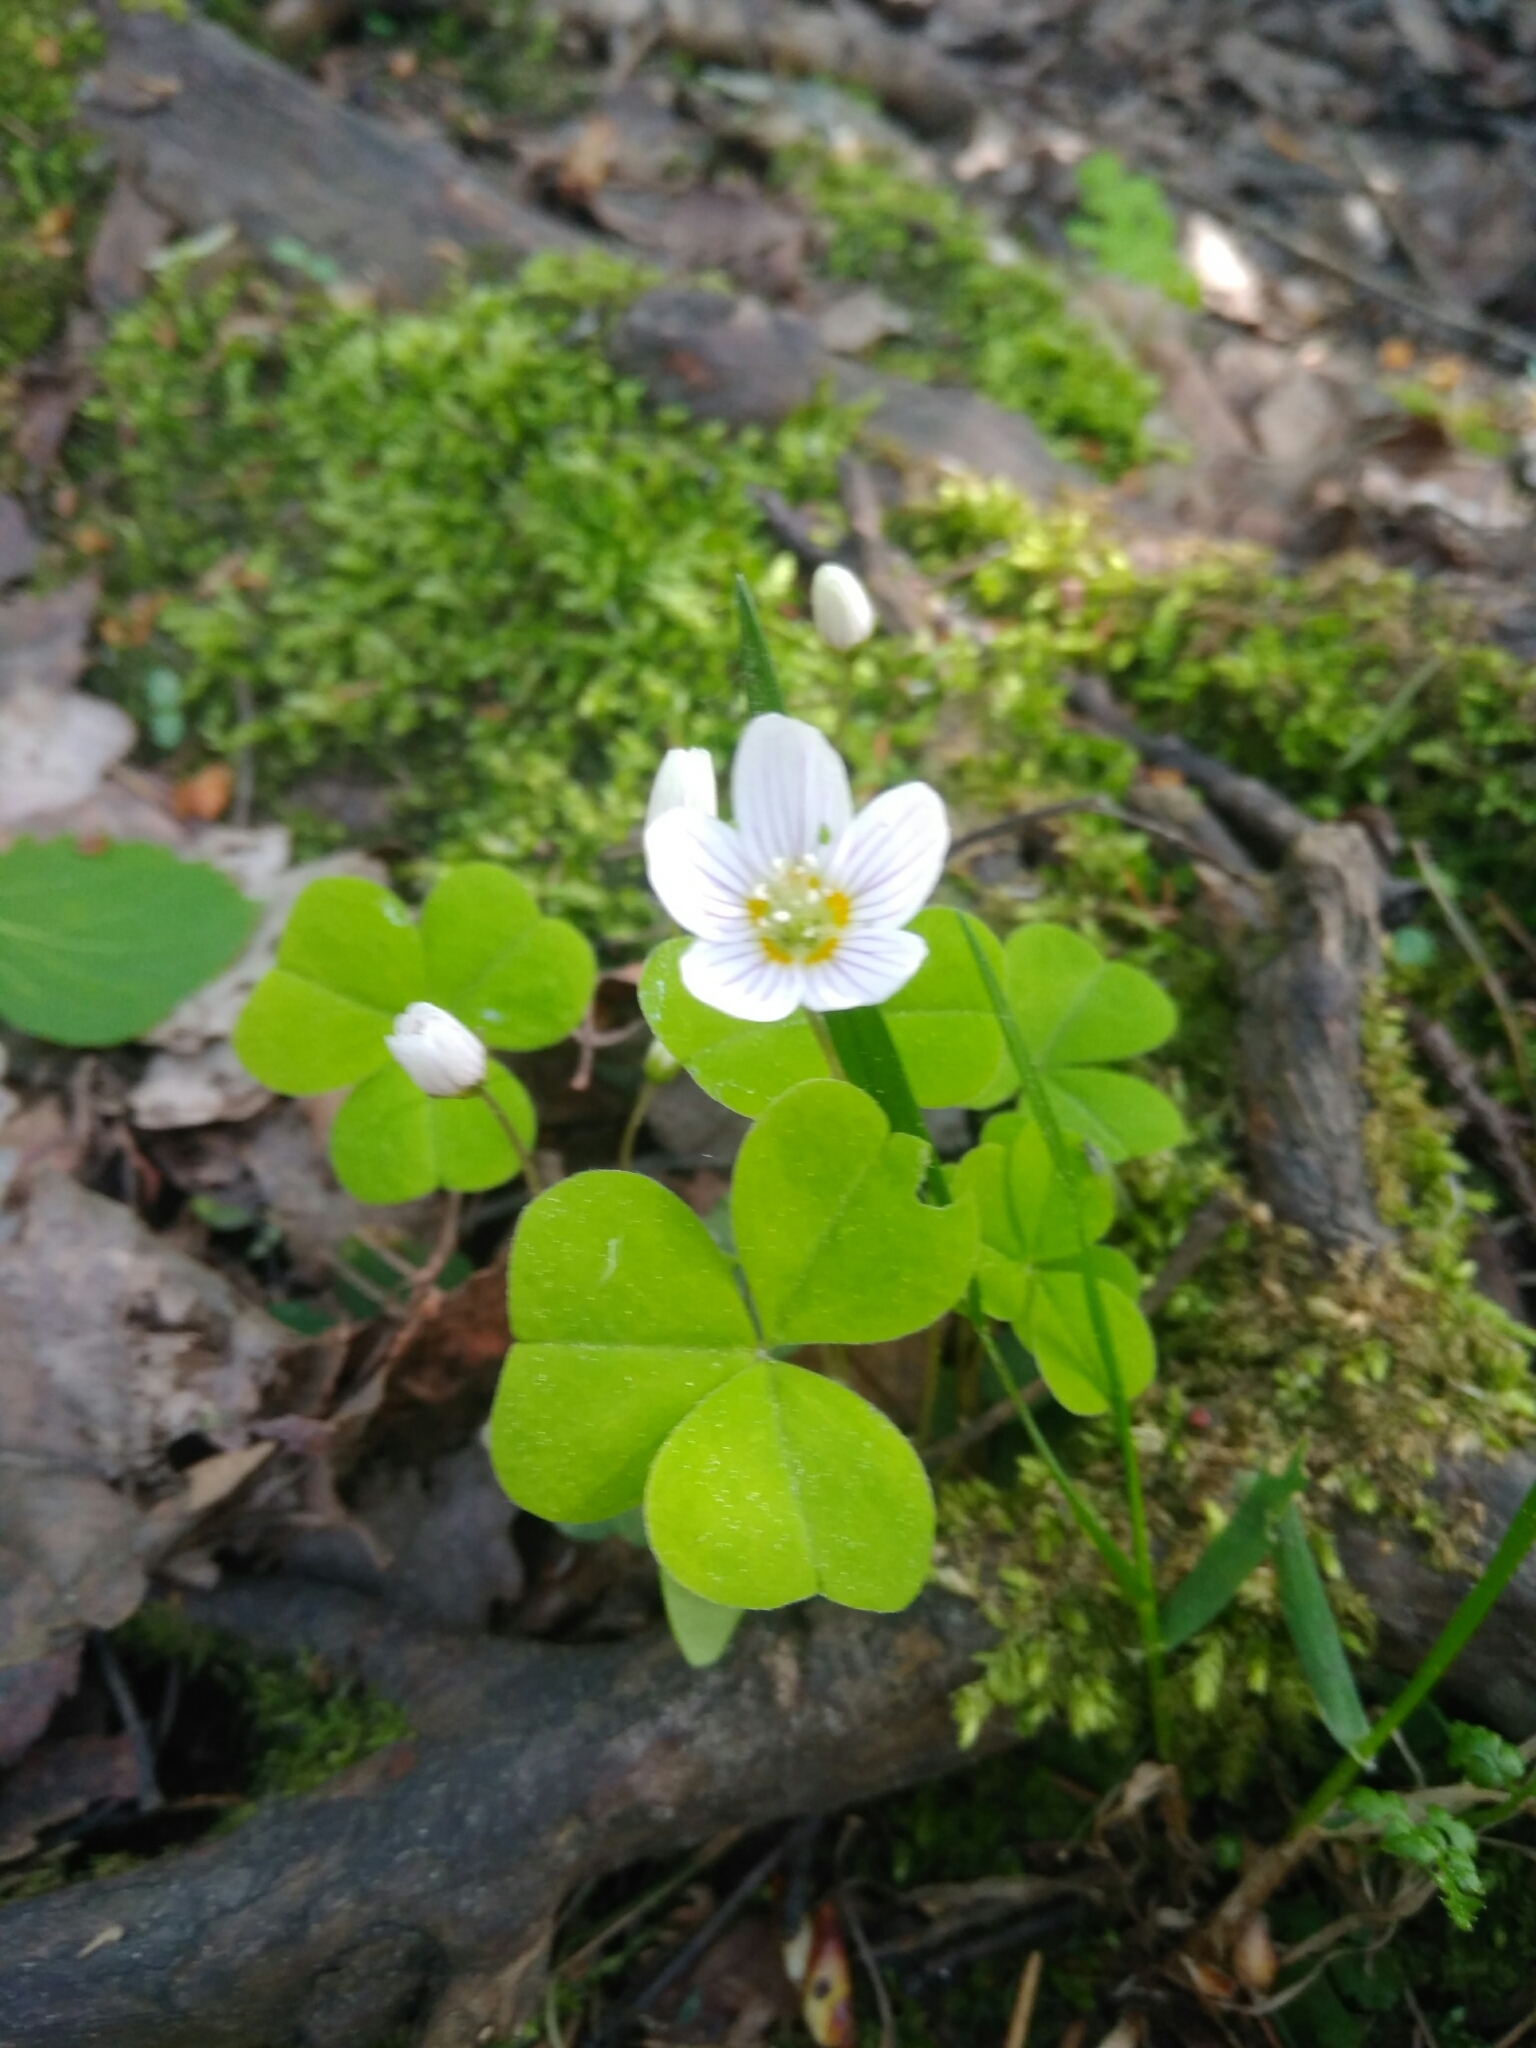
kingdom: Plantae
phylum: Tracheophyta
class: Magnoliopsida
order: Oxalidales
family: Oxalidaceae
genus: Oxalis
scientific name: Oxalis acetosella
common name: Wood-sorrel
